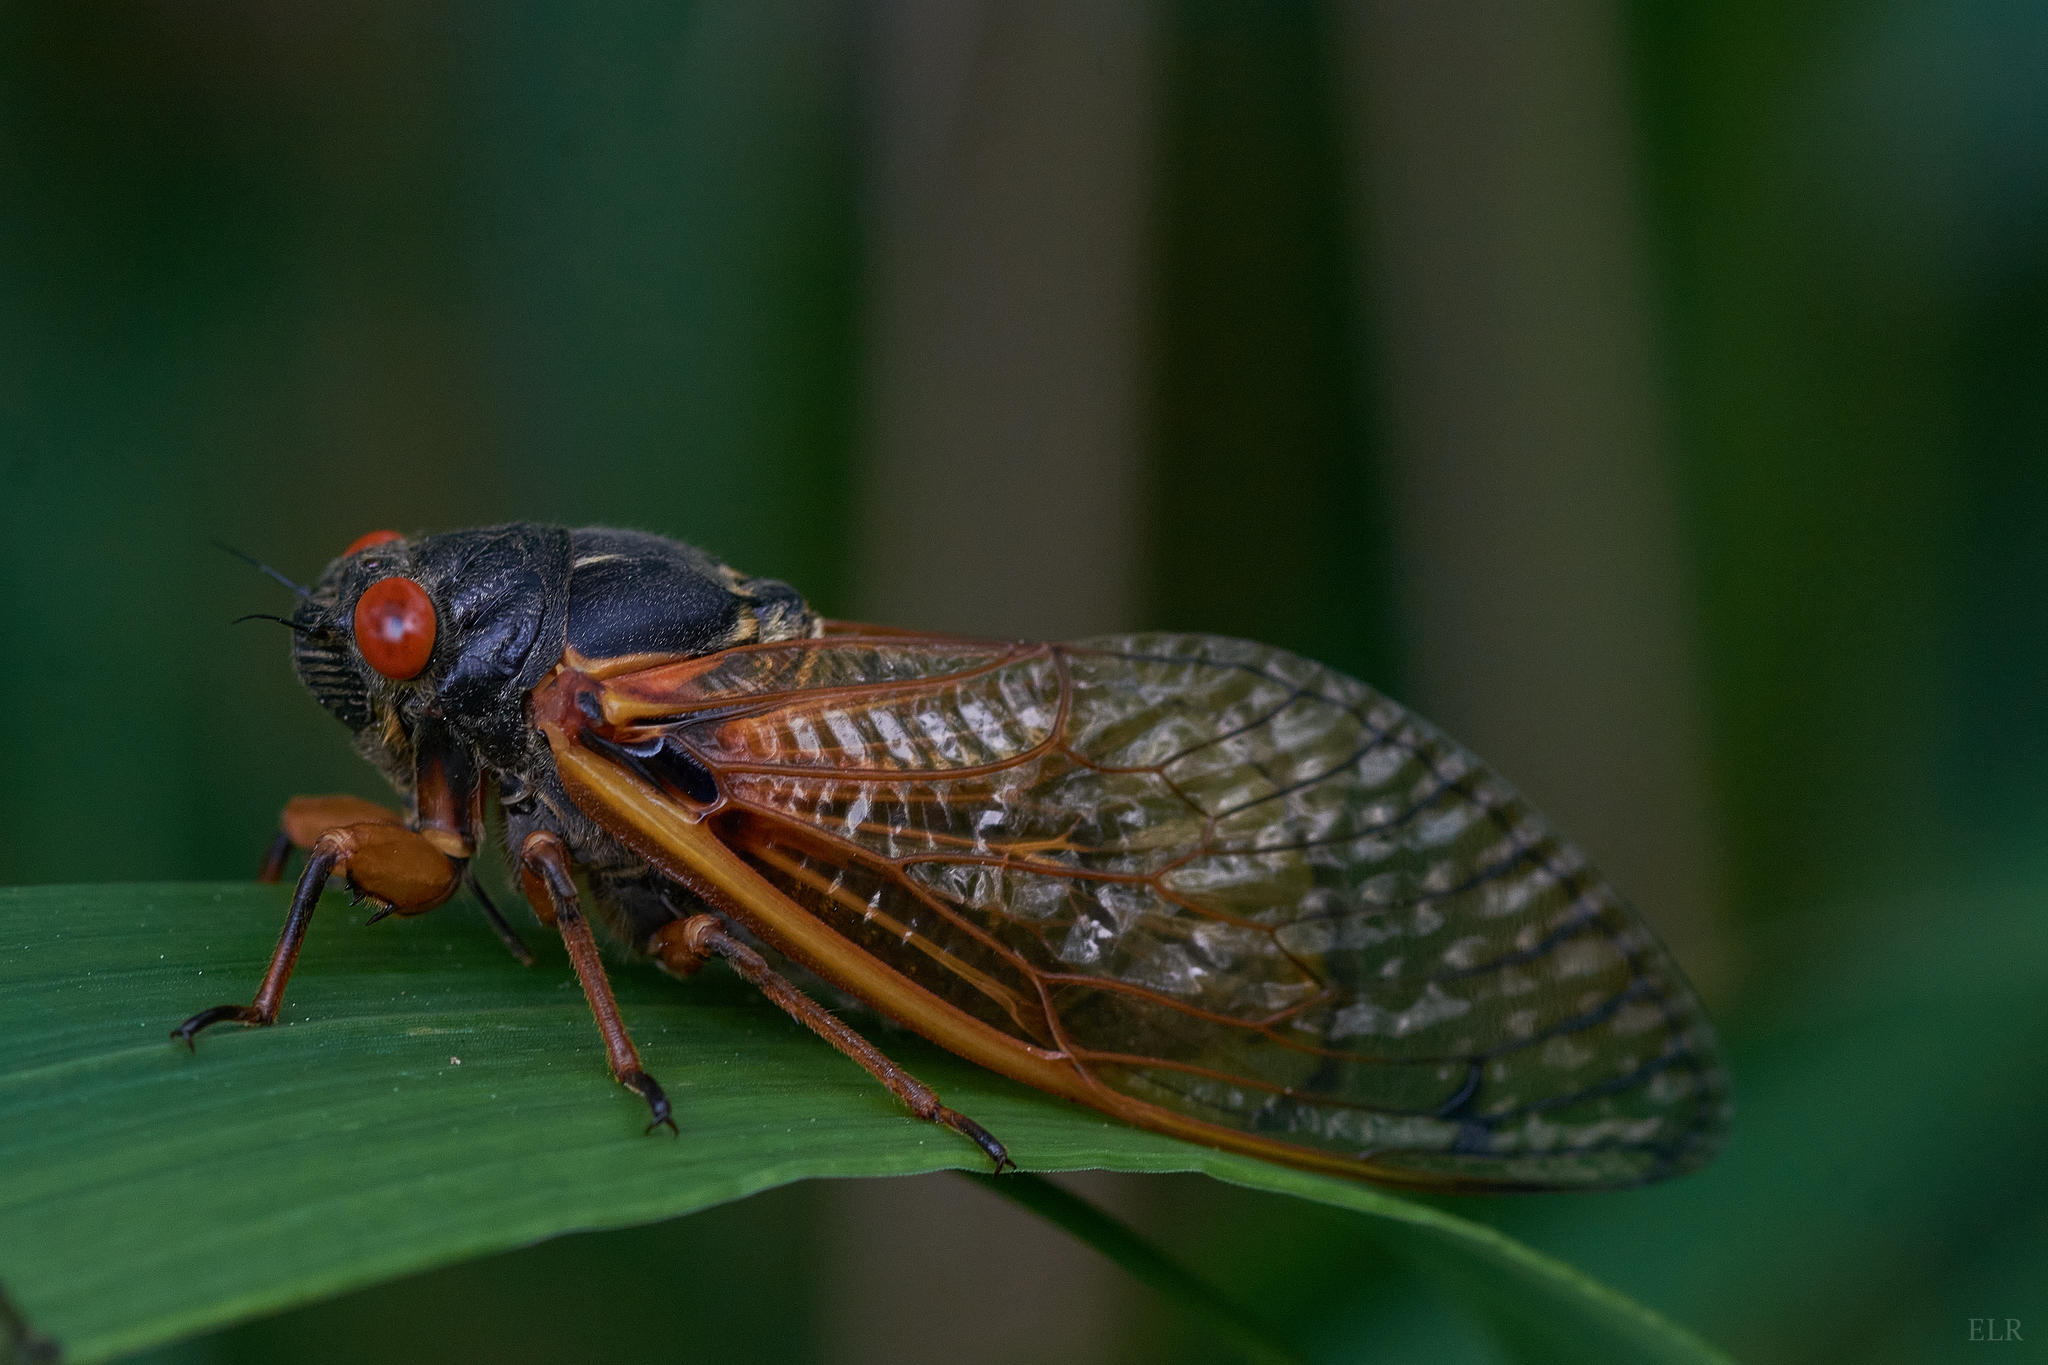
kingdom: Animalia
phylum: Arthropoda
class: Insecta
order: Hemiptera
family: Cicadidae
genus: Magicicada
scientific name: Magicicada
